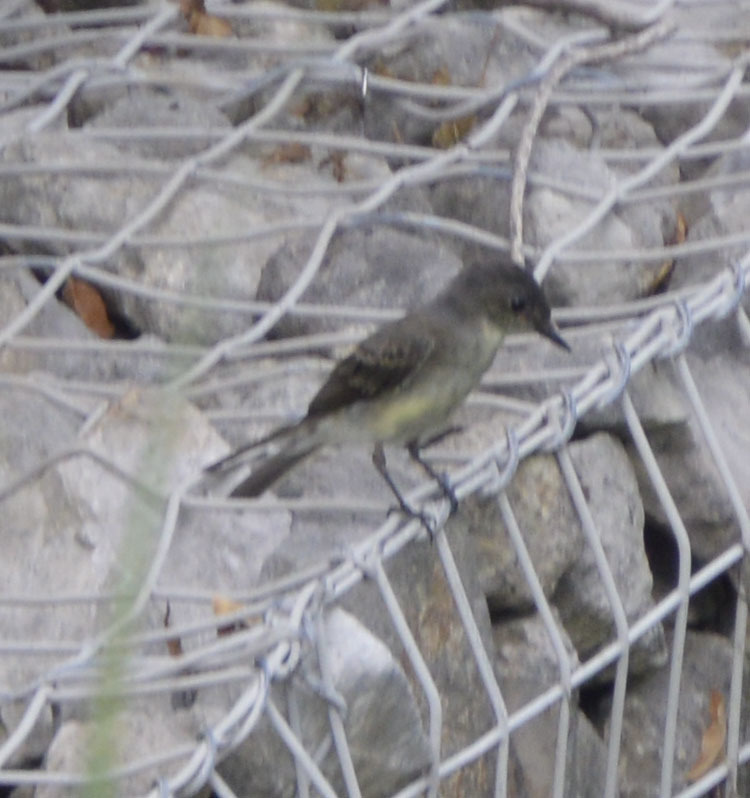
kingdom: Animalia
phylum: Chordata
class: Aves
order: Passeriformes
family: Tyrannidae
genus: Sayornis
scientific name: Sayornis phoebe
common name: Eastern phoebe
